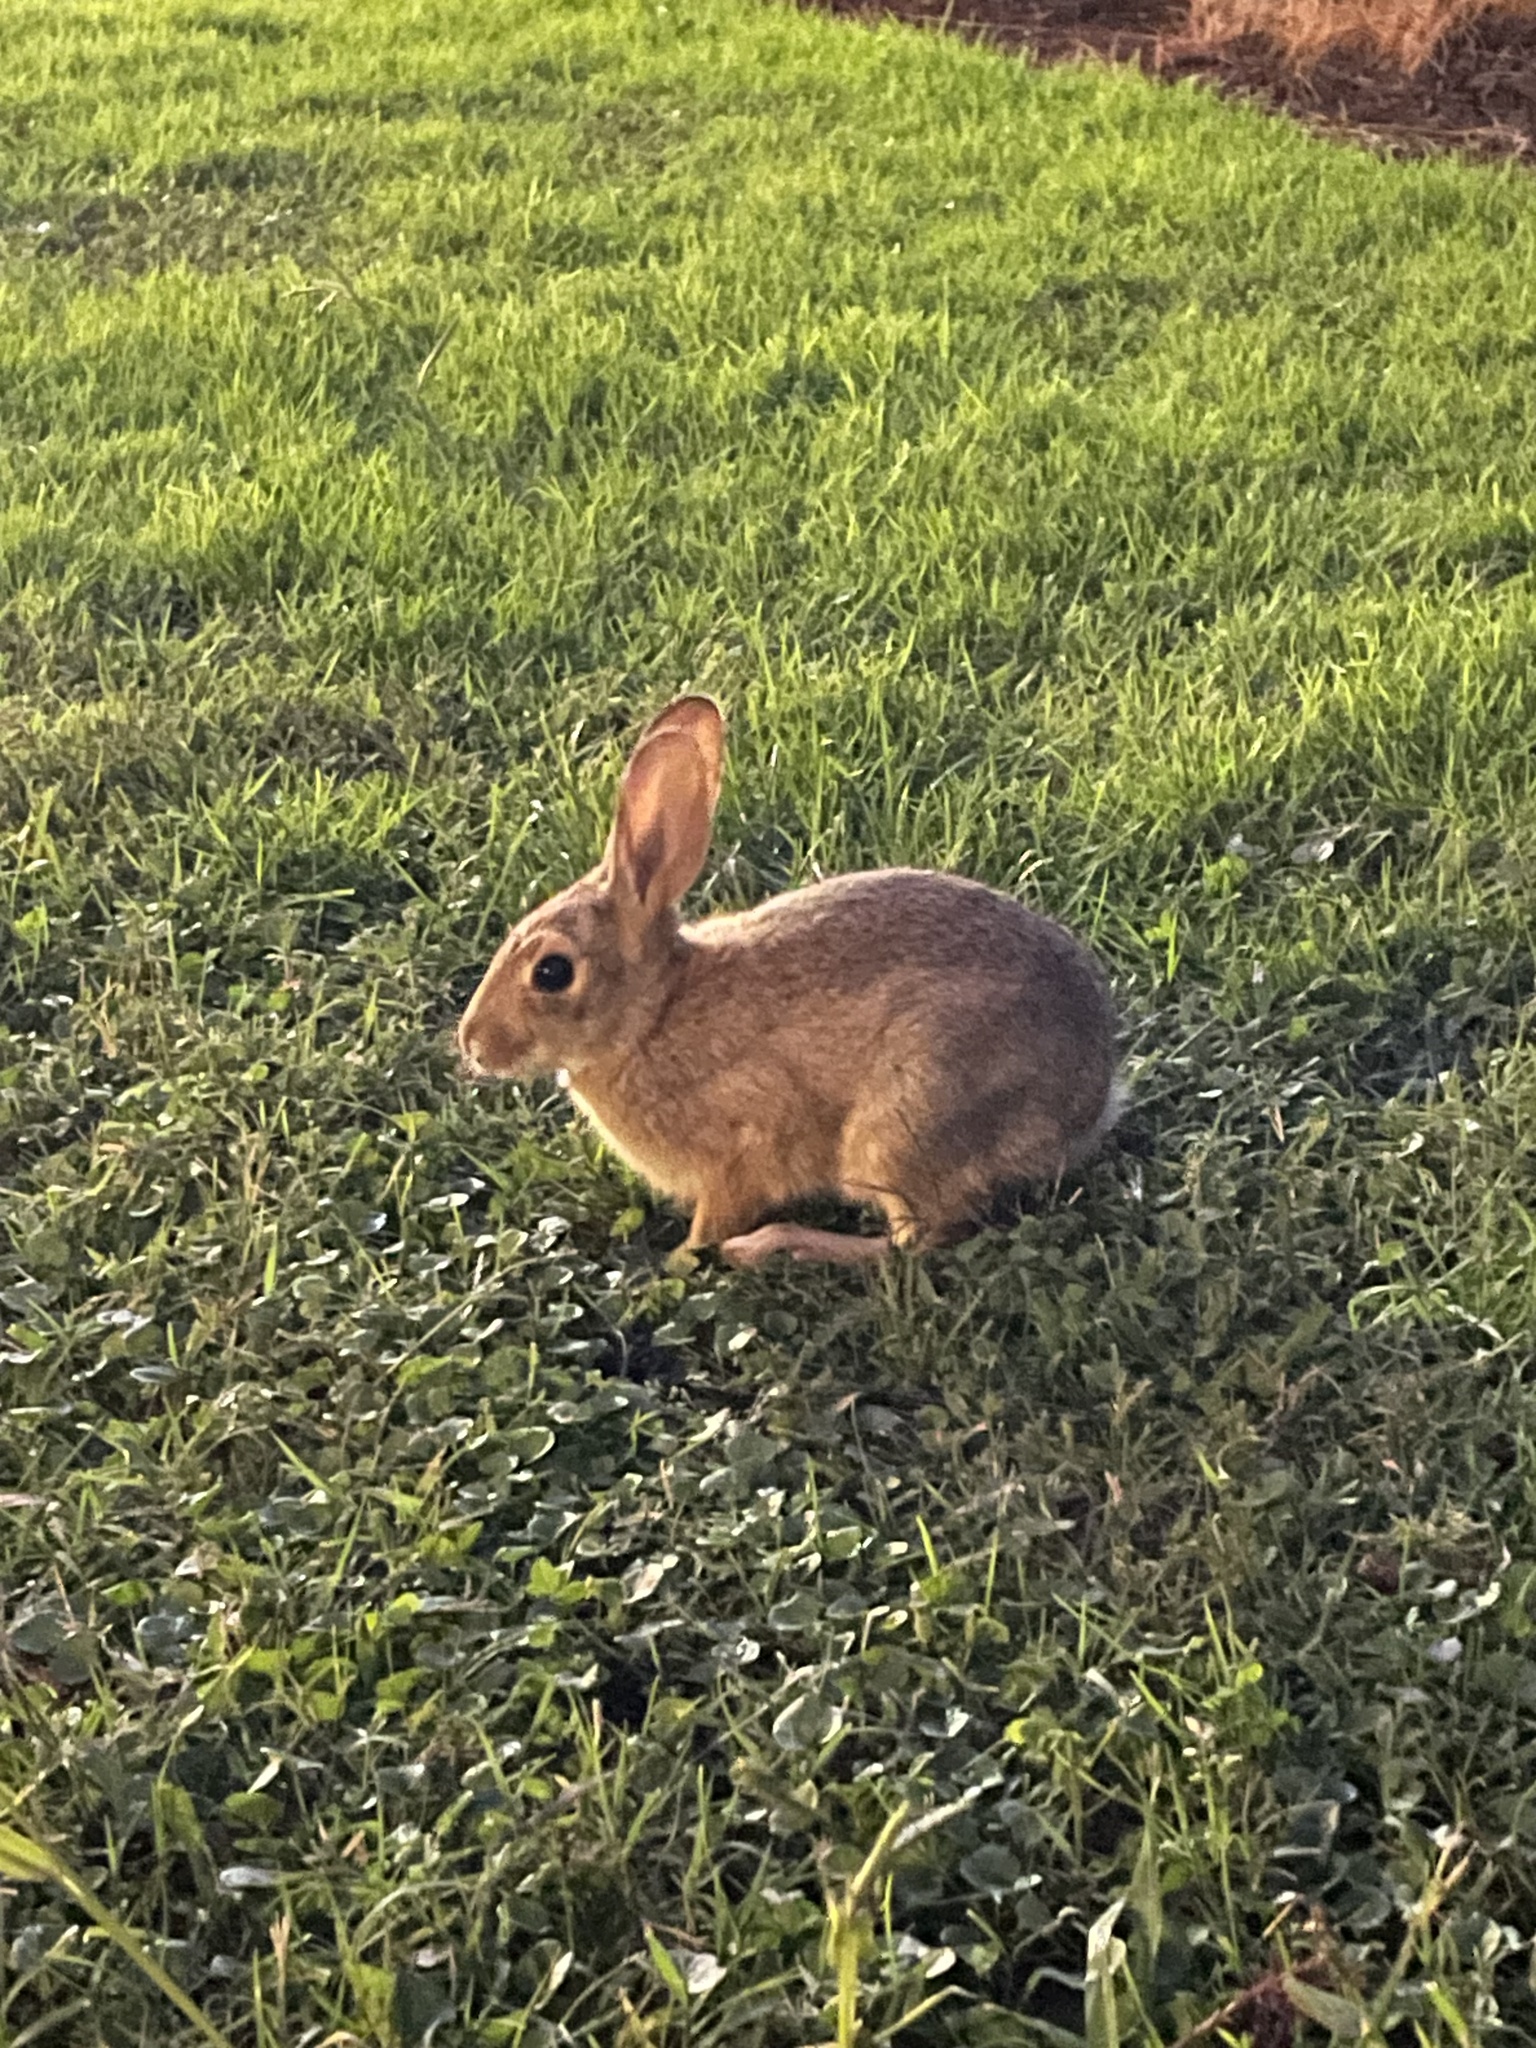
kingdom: Animalia
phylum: Chordata
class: Mammalia
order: Lagomorpha
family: Leporidae
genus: Sylvilagus
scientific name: Sylvilagus audubonii
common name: Desert cottontail
